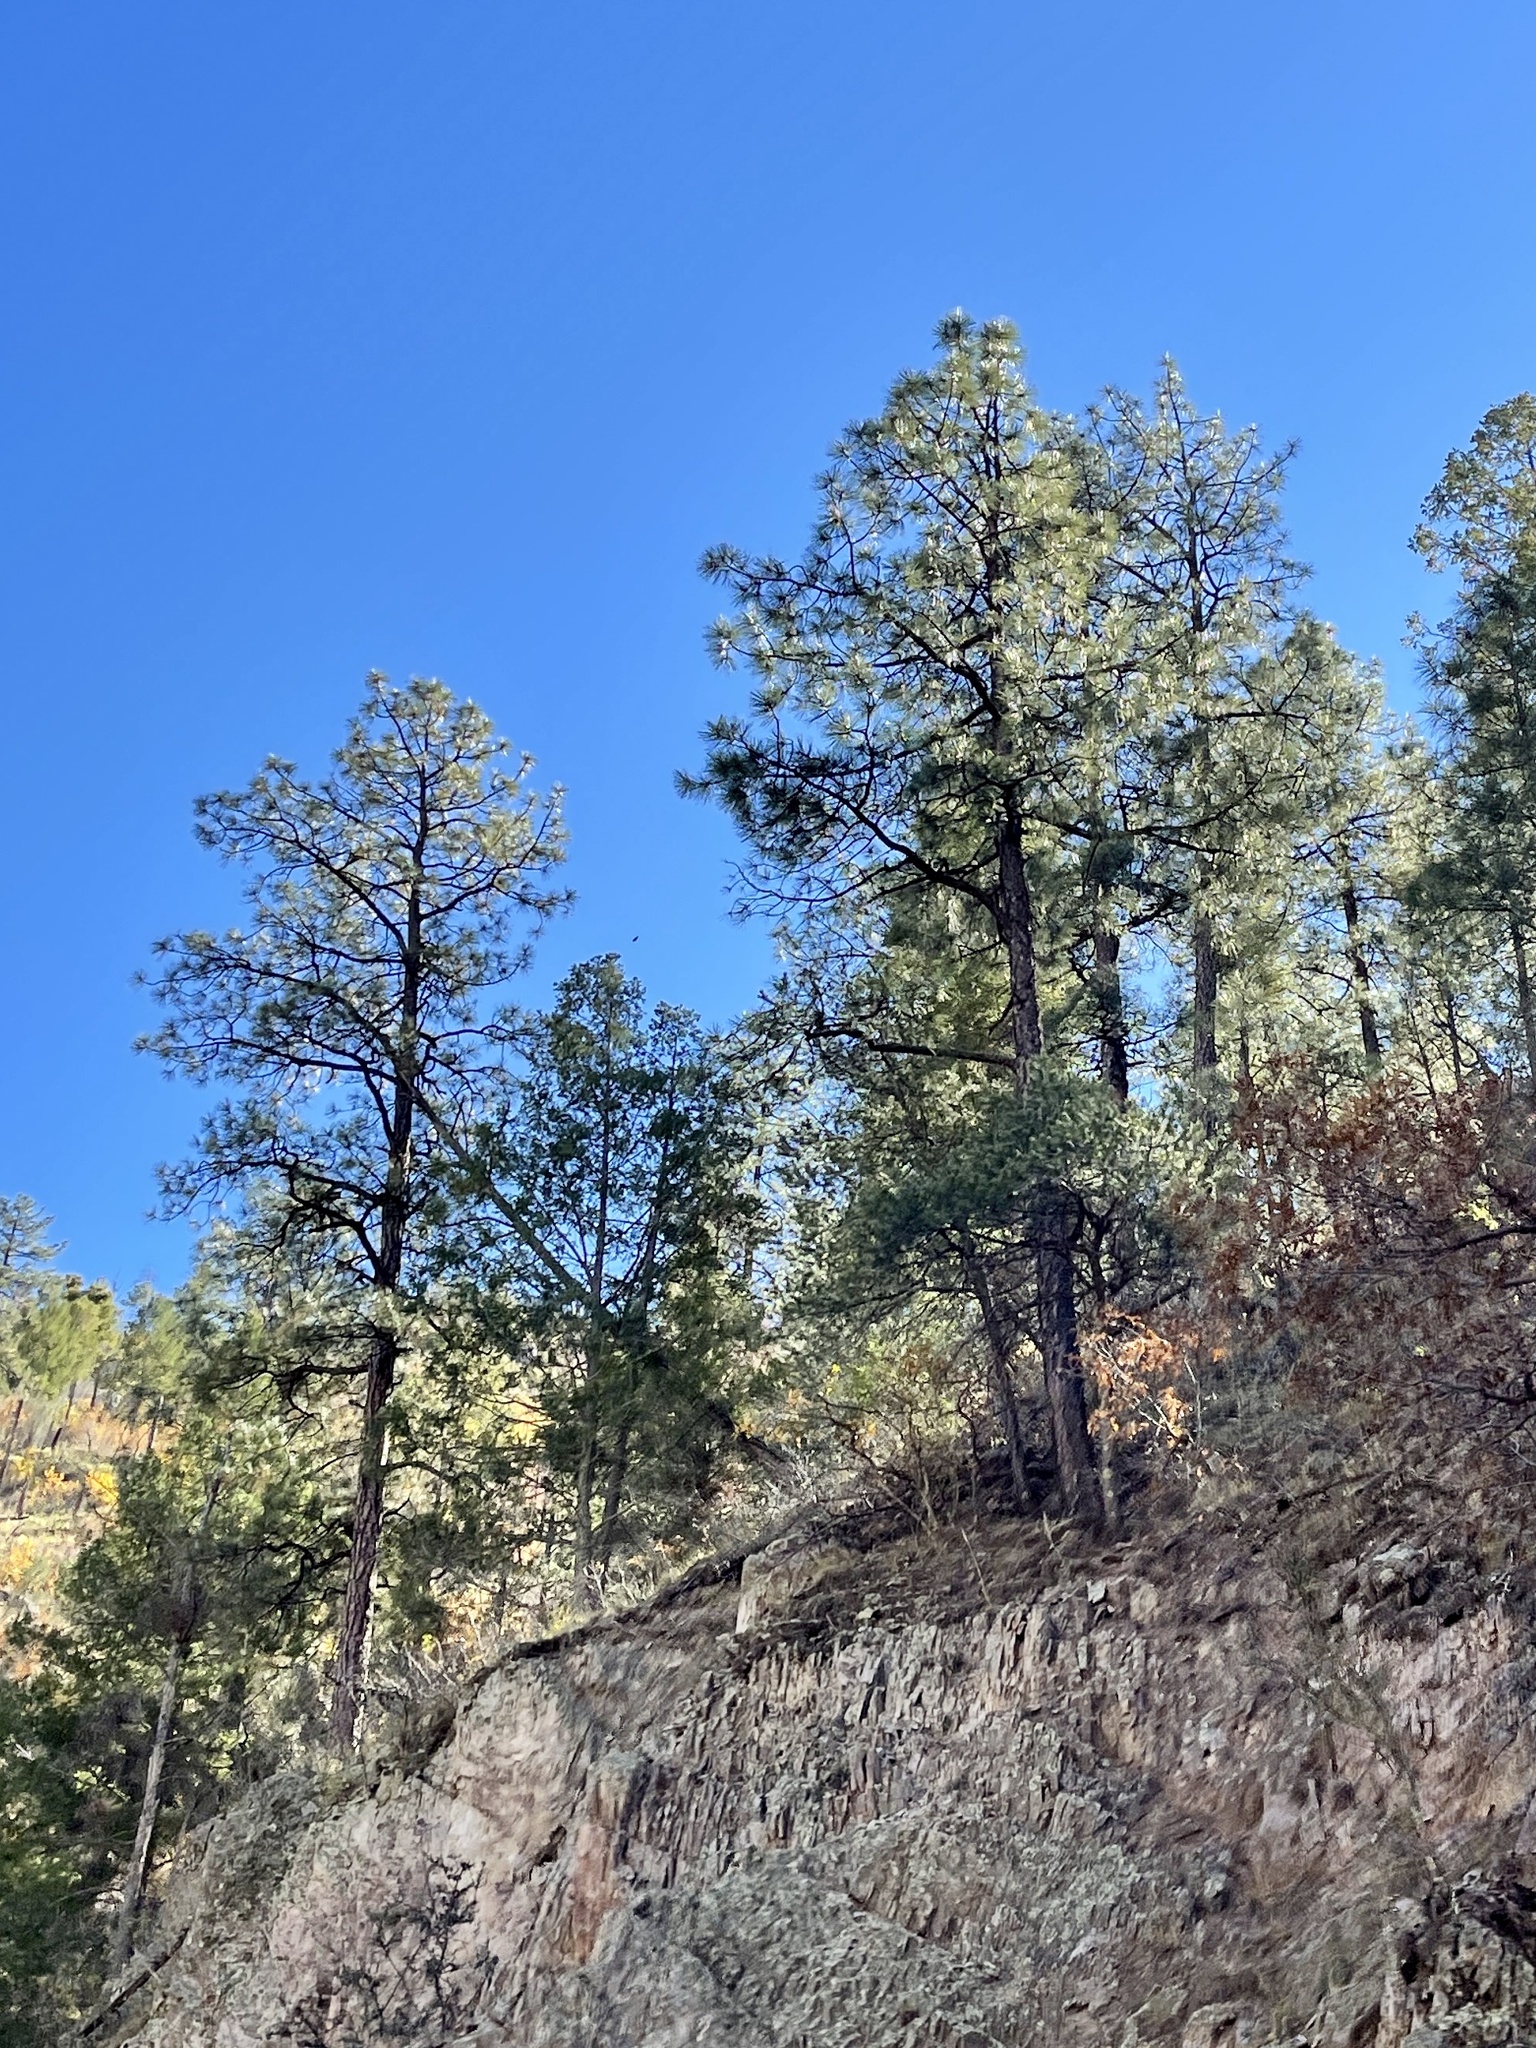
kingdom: Plantae
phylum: Tracheophyta
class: Pinopsida
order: Pinales
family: Pinaceae
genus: Pinus
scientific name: Pinus ponderosa
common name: Western yellow-pine
